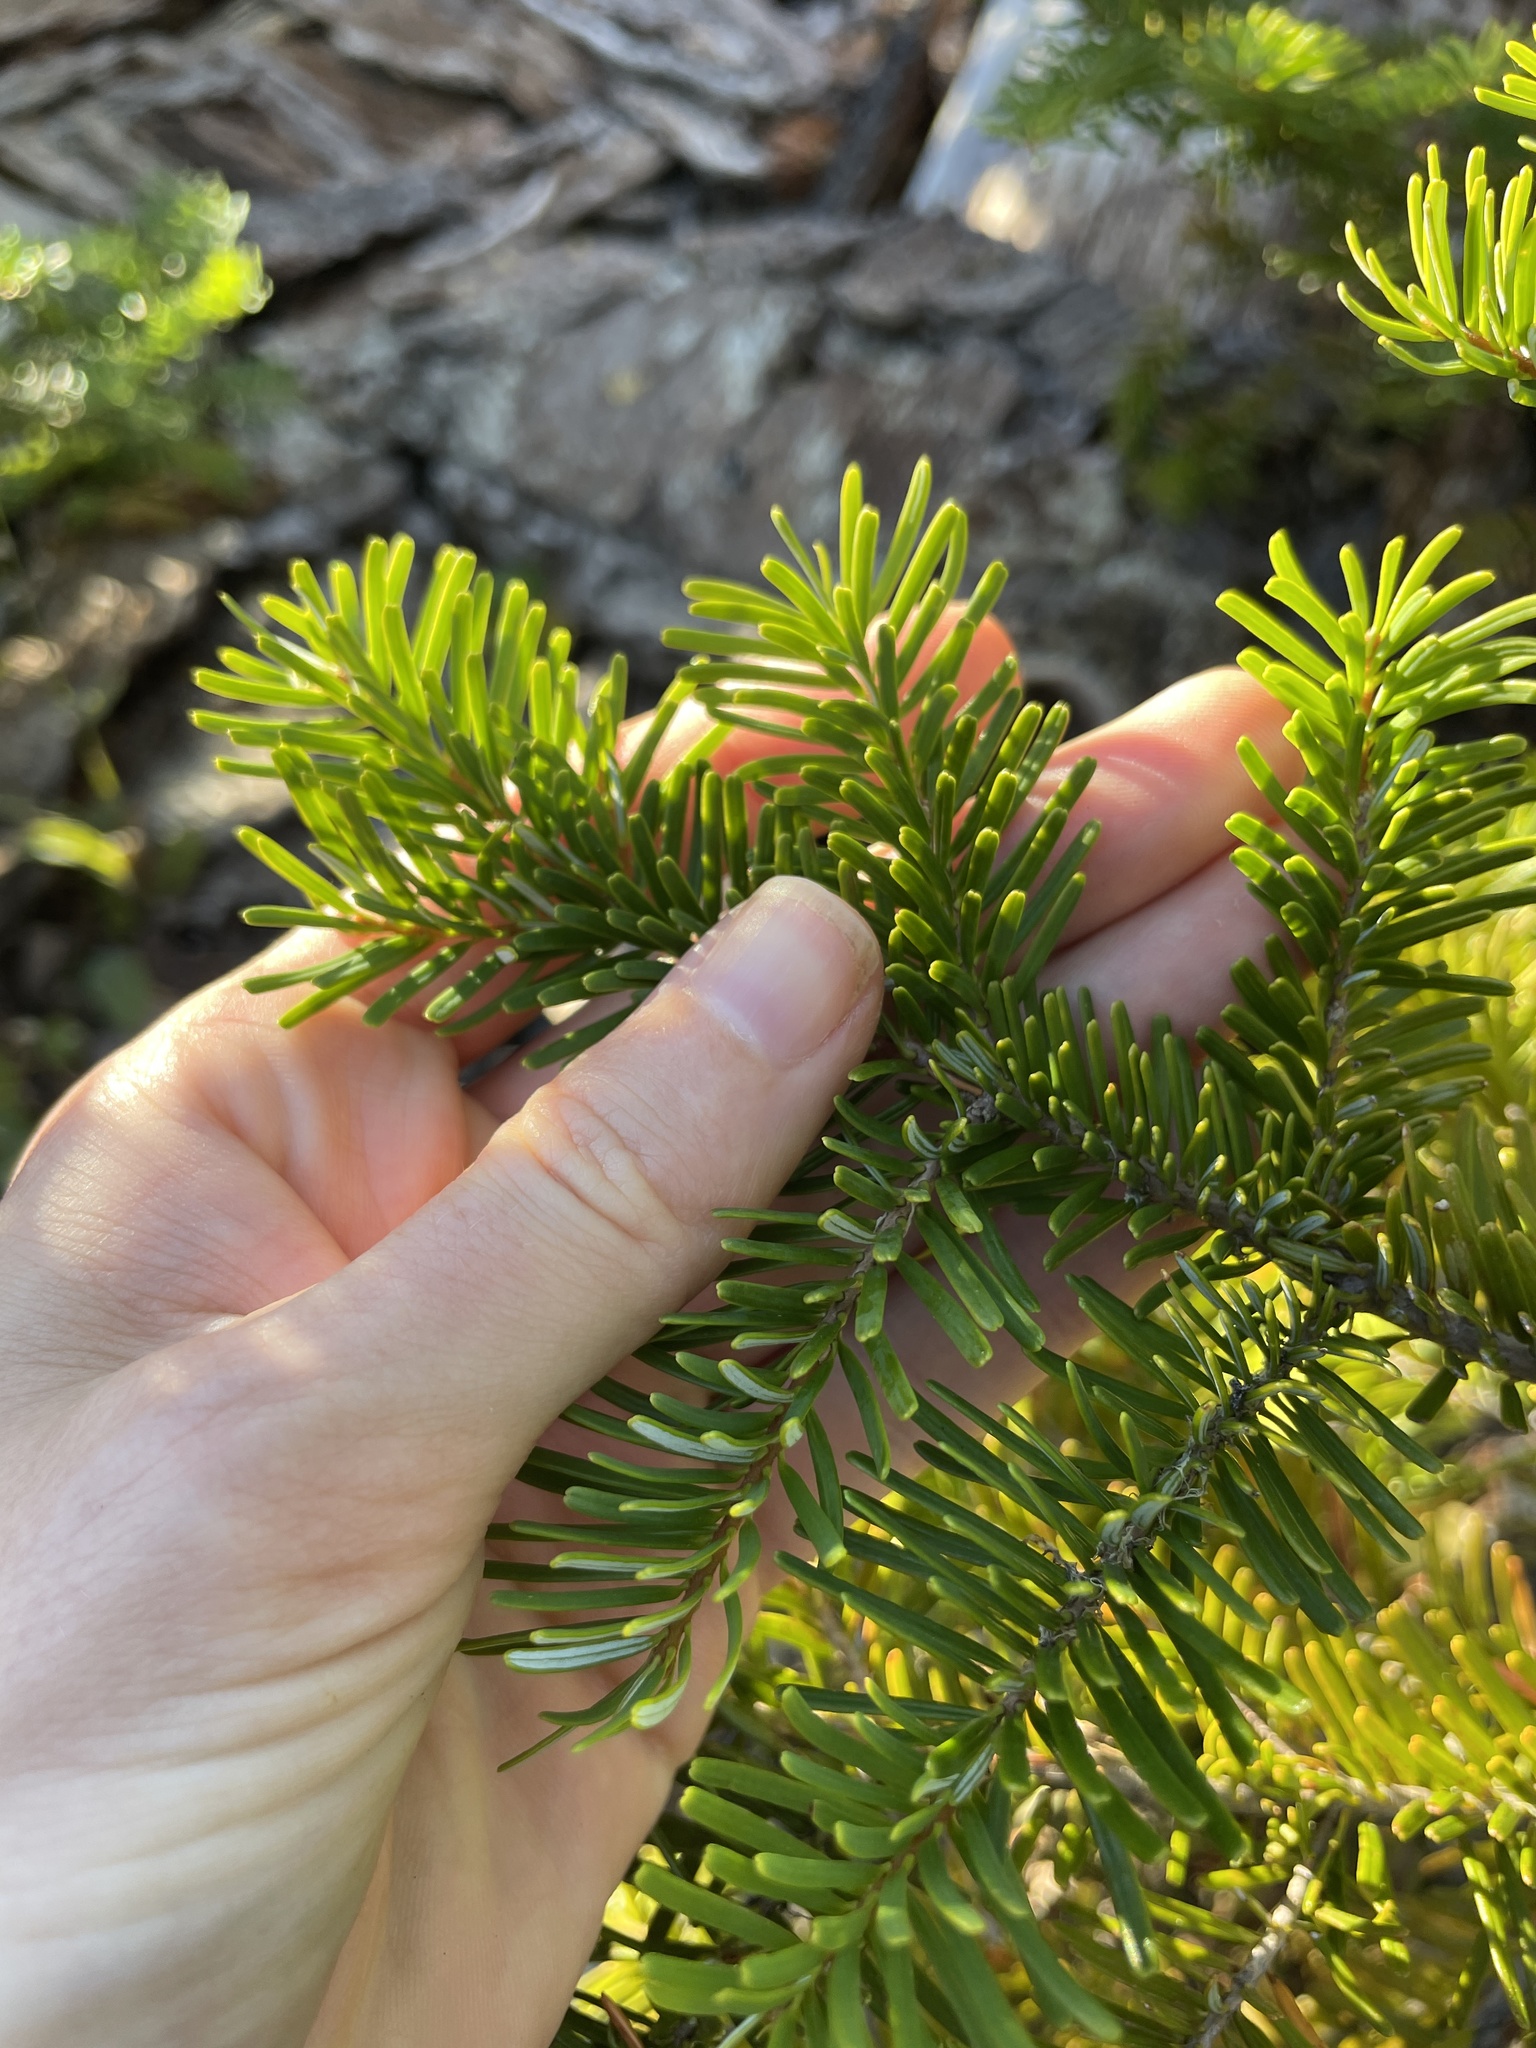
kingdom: Plantae
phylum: Tracheophyta
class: Pinopsida
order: Pinales
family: Pinaceae
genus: Abies
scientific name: Abies amabilis
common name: Pacific silver fir
